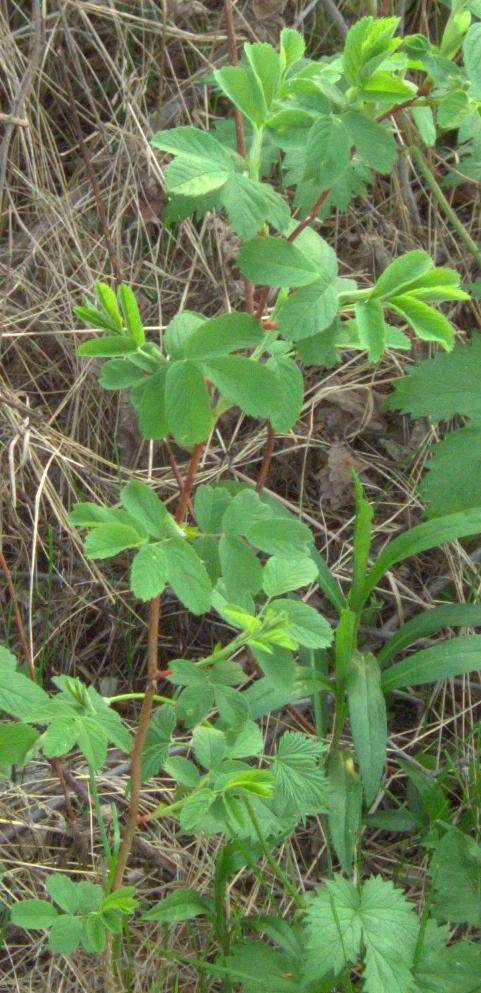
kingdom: Plantae
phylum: Tracheophyta
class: Magnoliopsida
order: Rosales
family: Rosaceae
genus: Rosa
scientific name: Rosa
